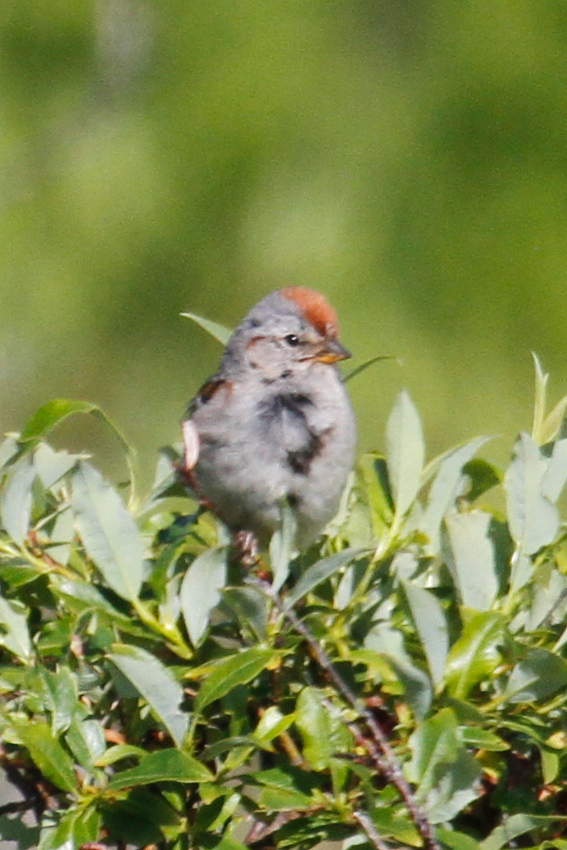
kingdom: Animalia
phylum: Chordata
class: Aves
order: Passeriformes
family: Passerellidae
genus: Spizelloides
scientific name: Spizelloides arborea
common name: American tree sparrow
